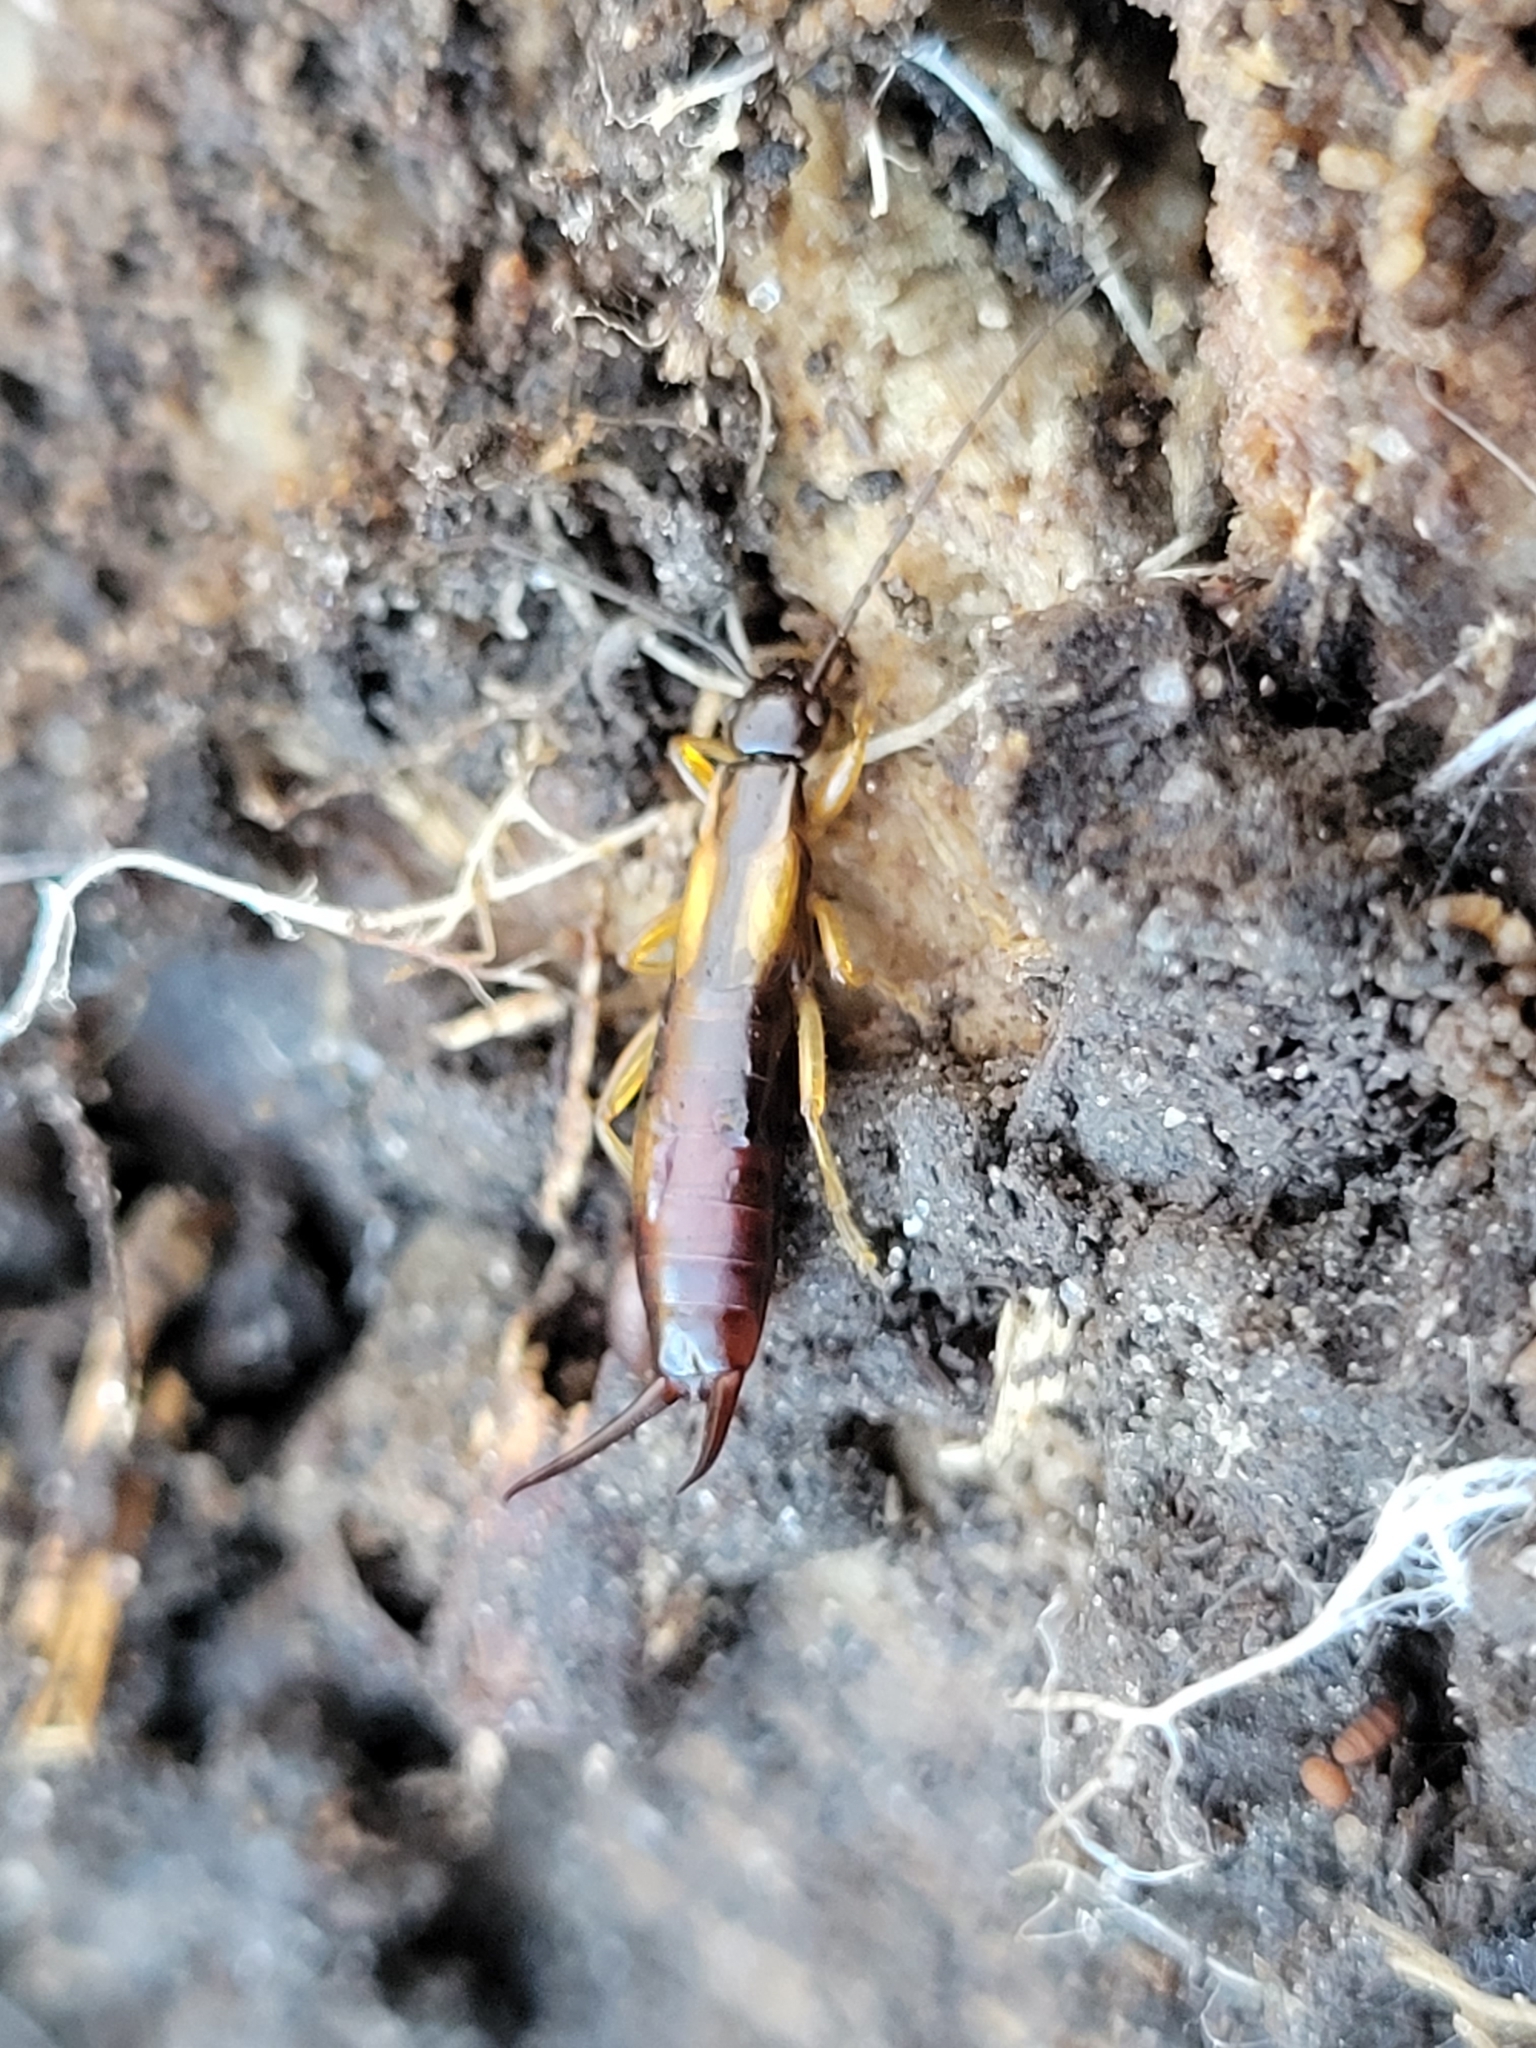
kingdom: Animalia
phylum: Arthropoda
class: Insecta
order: Dermaptera
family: Forficulidae
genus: Doru
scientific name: Doru aculeatum
